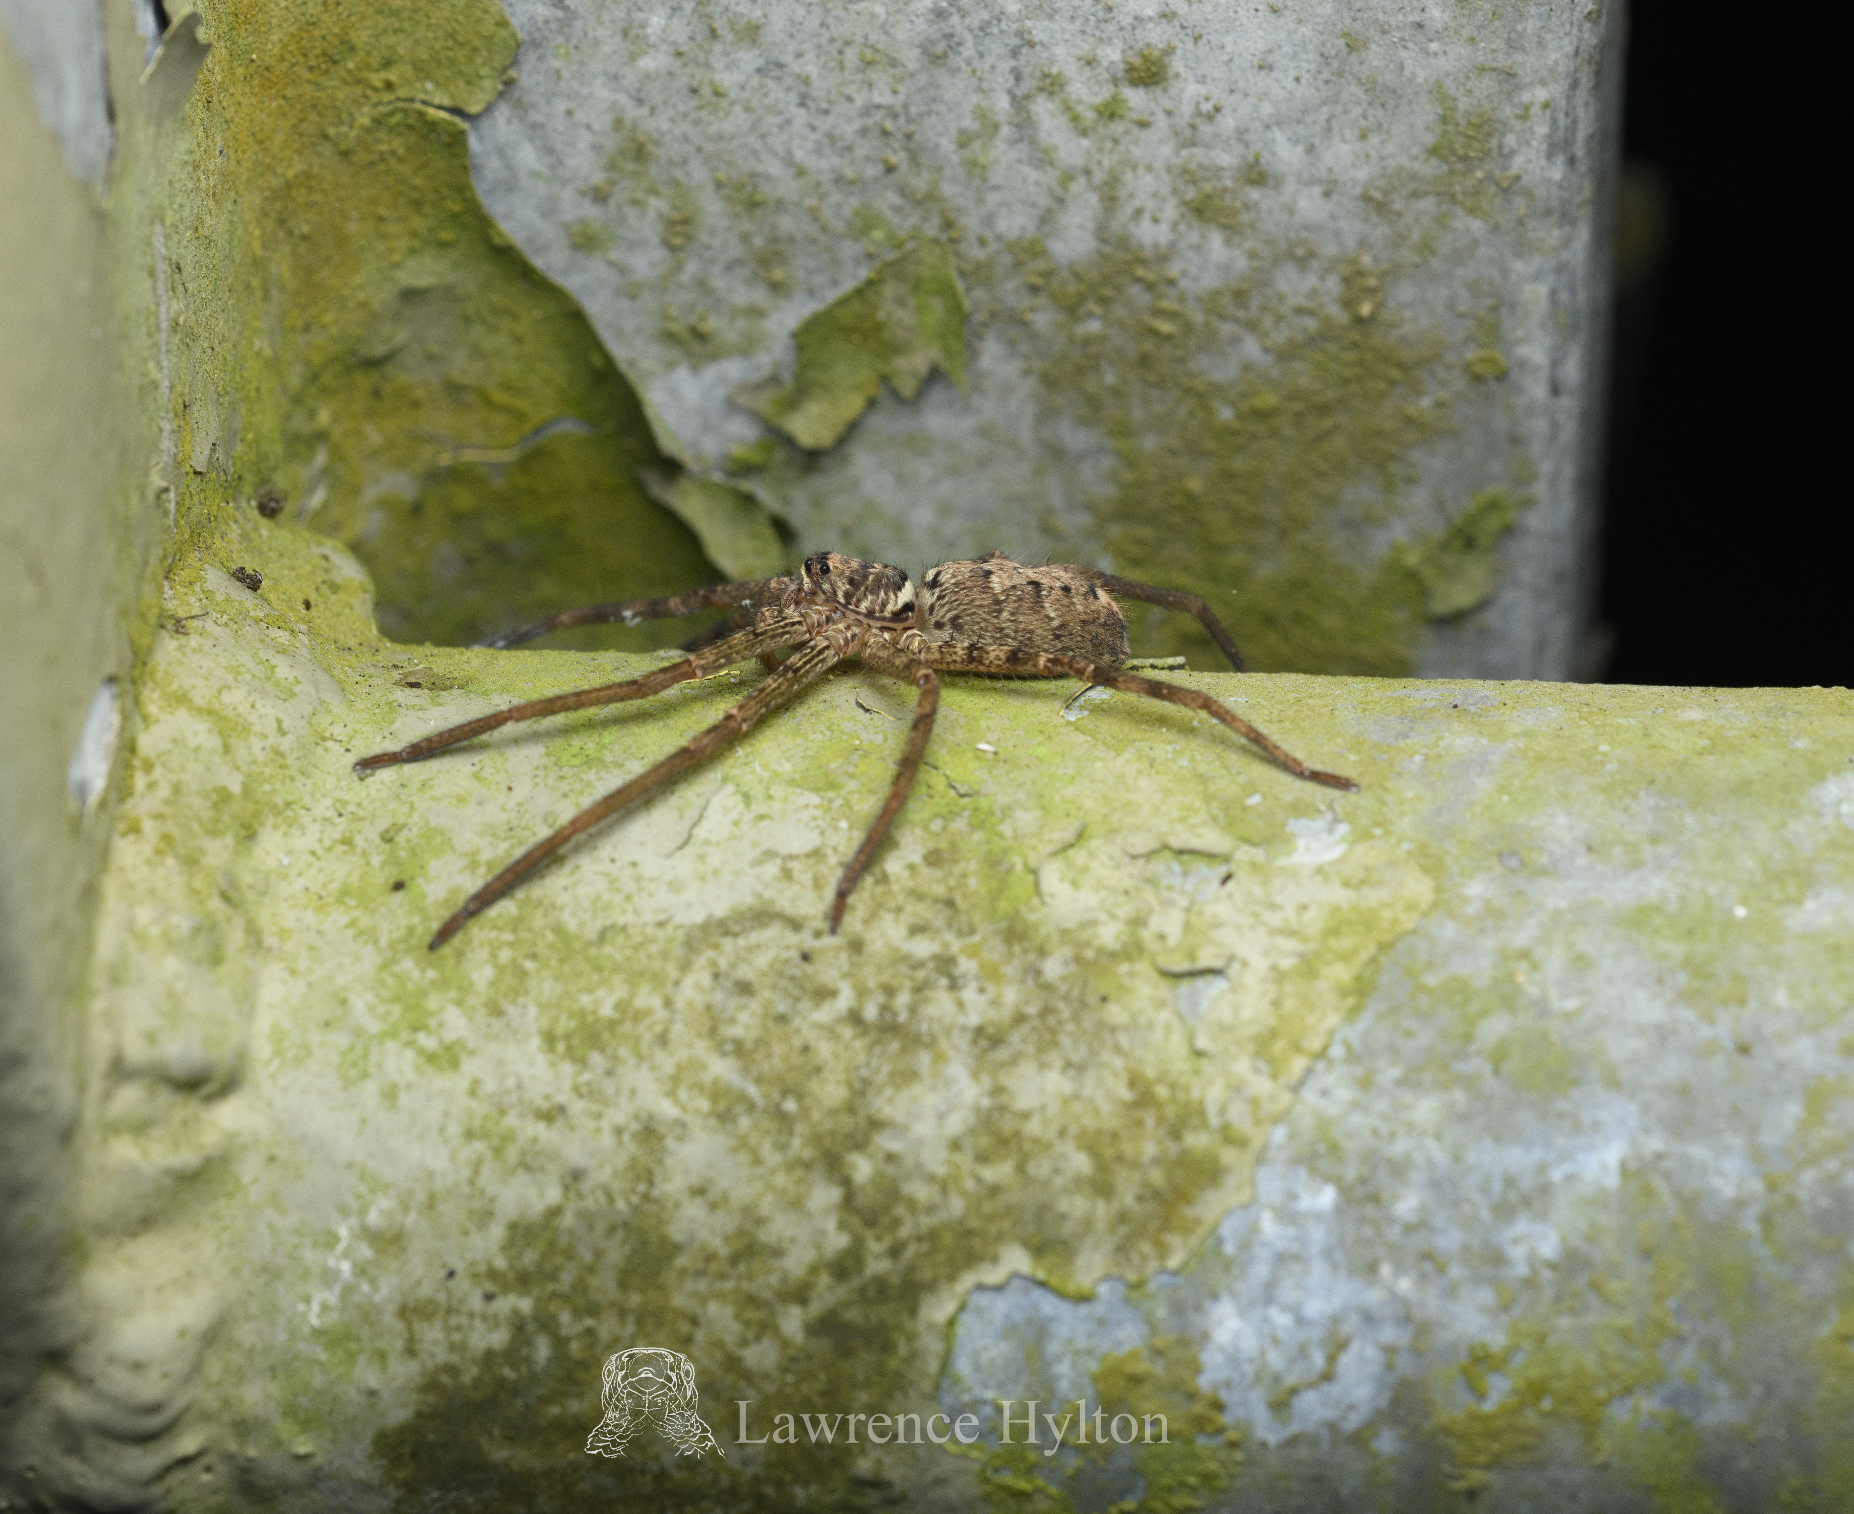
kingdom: Animalia
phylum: Arthropoda
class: Arachnida
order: Araneae
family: Sparassidae
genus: Heteropoda
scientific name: Heteropoda venatoria
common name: Huntsman spider
